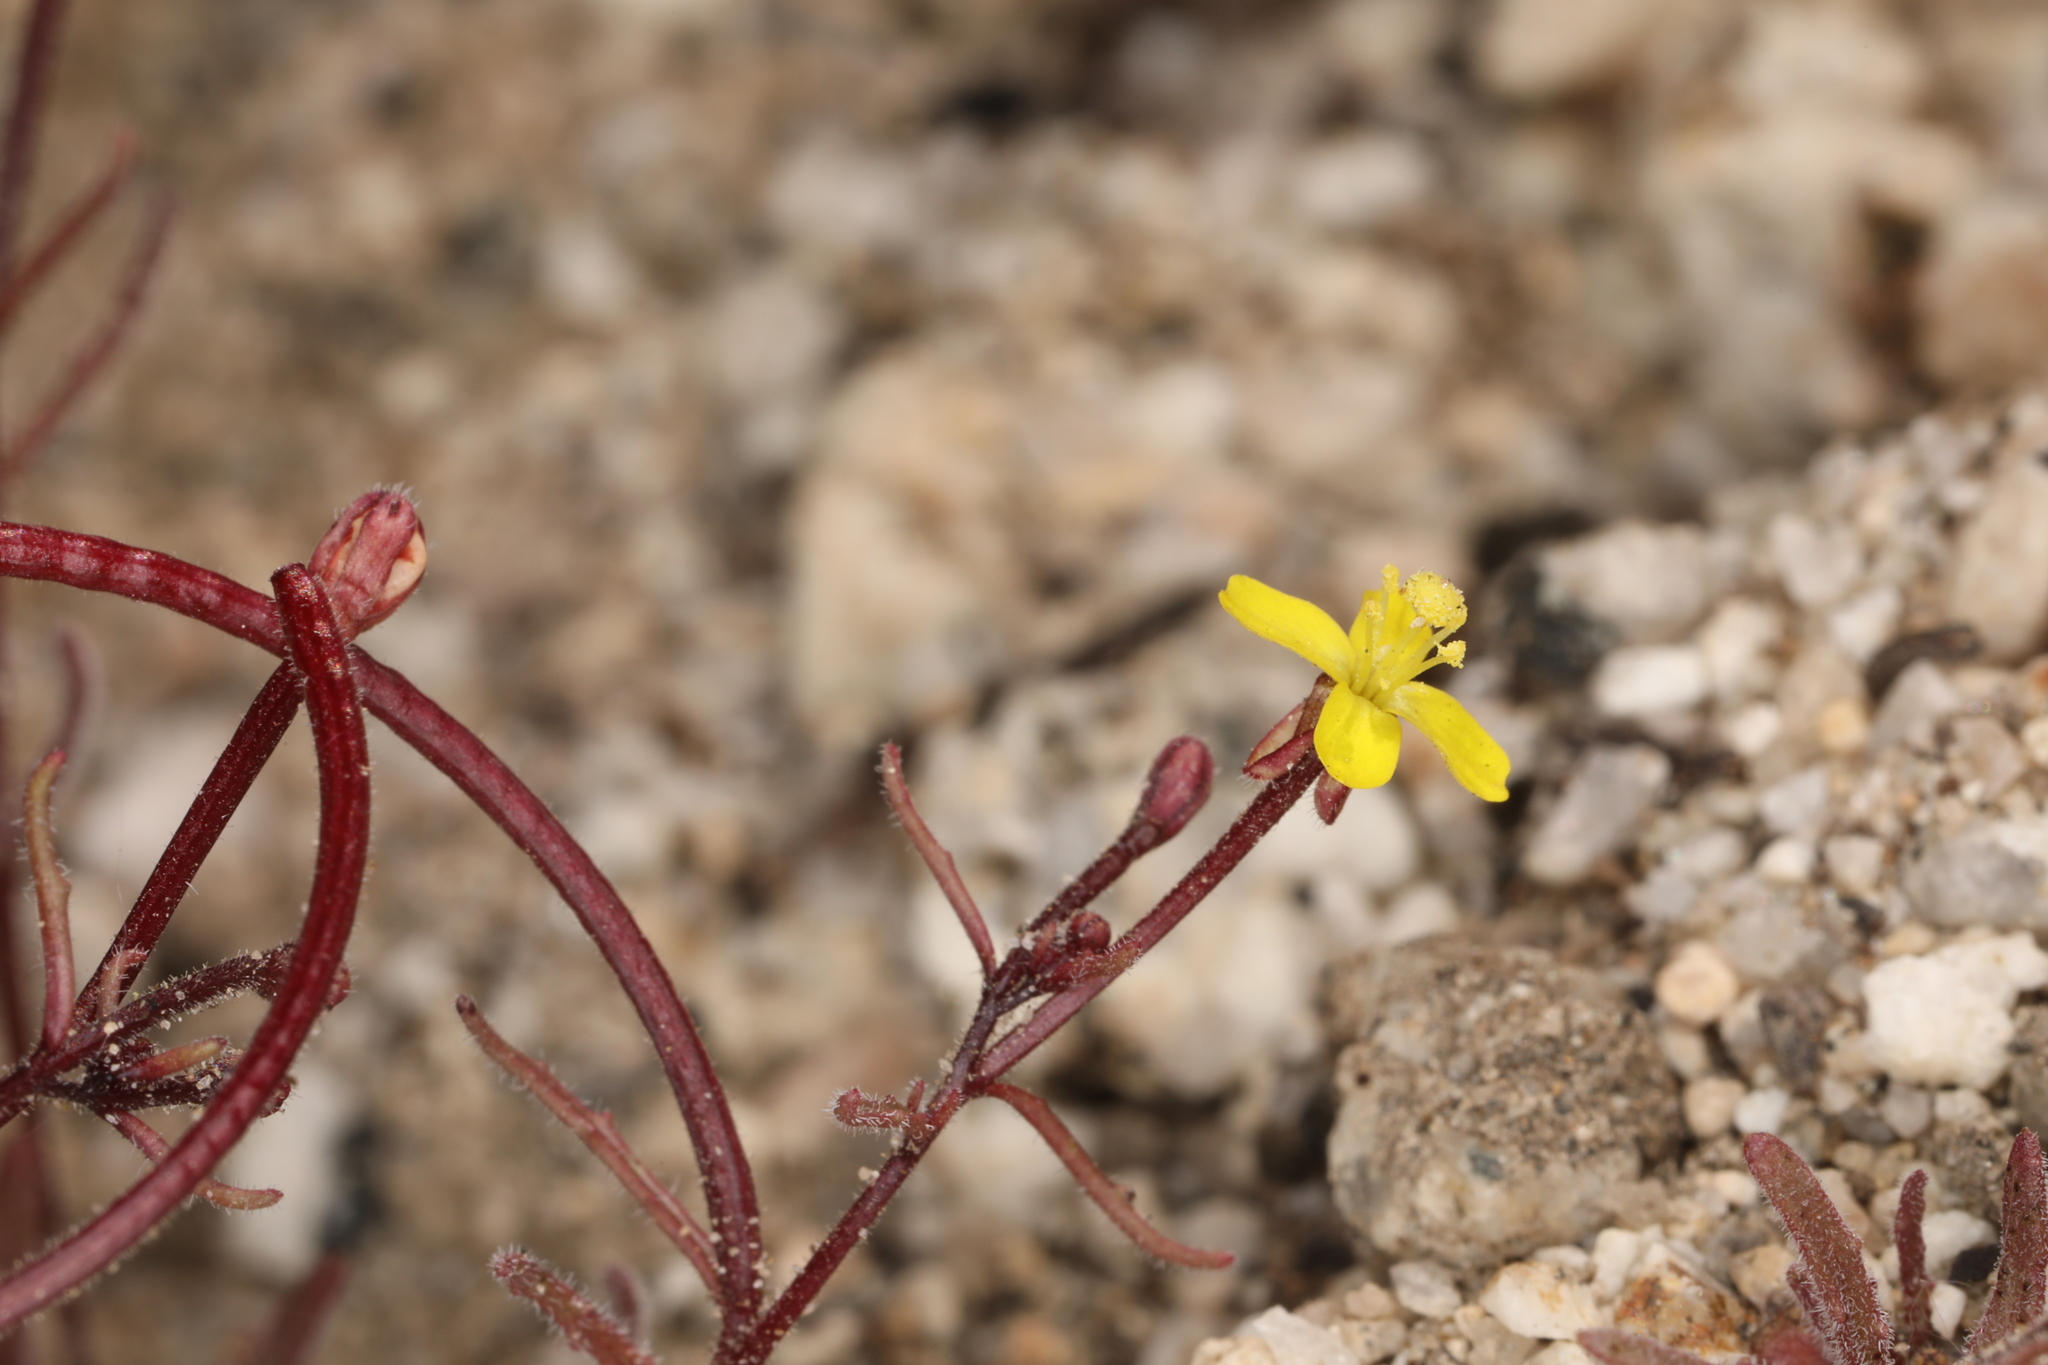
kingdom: Plantae
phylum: Tracheophyta
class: Magnoliopsida
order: Myrtales
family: Onagraceae
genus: Camissonia
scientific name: Camissonia pusilla
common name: Obscure camissonia
